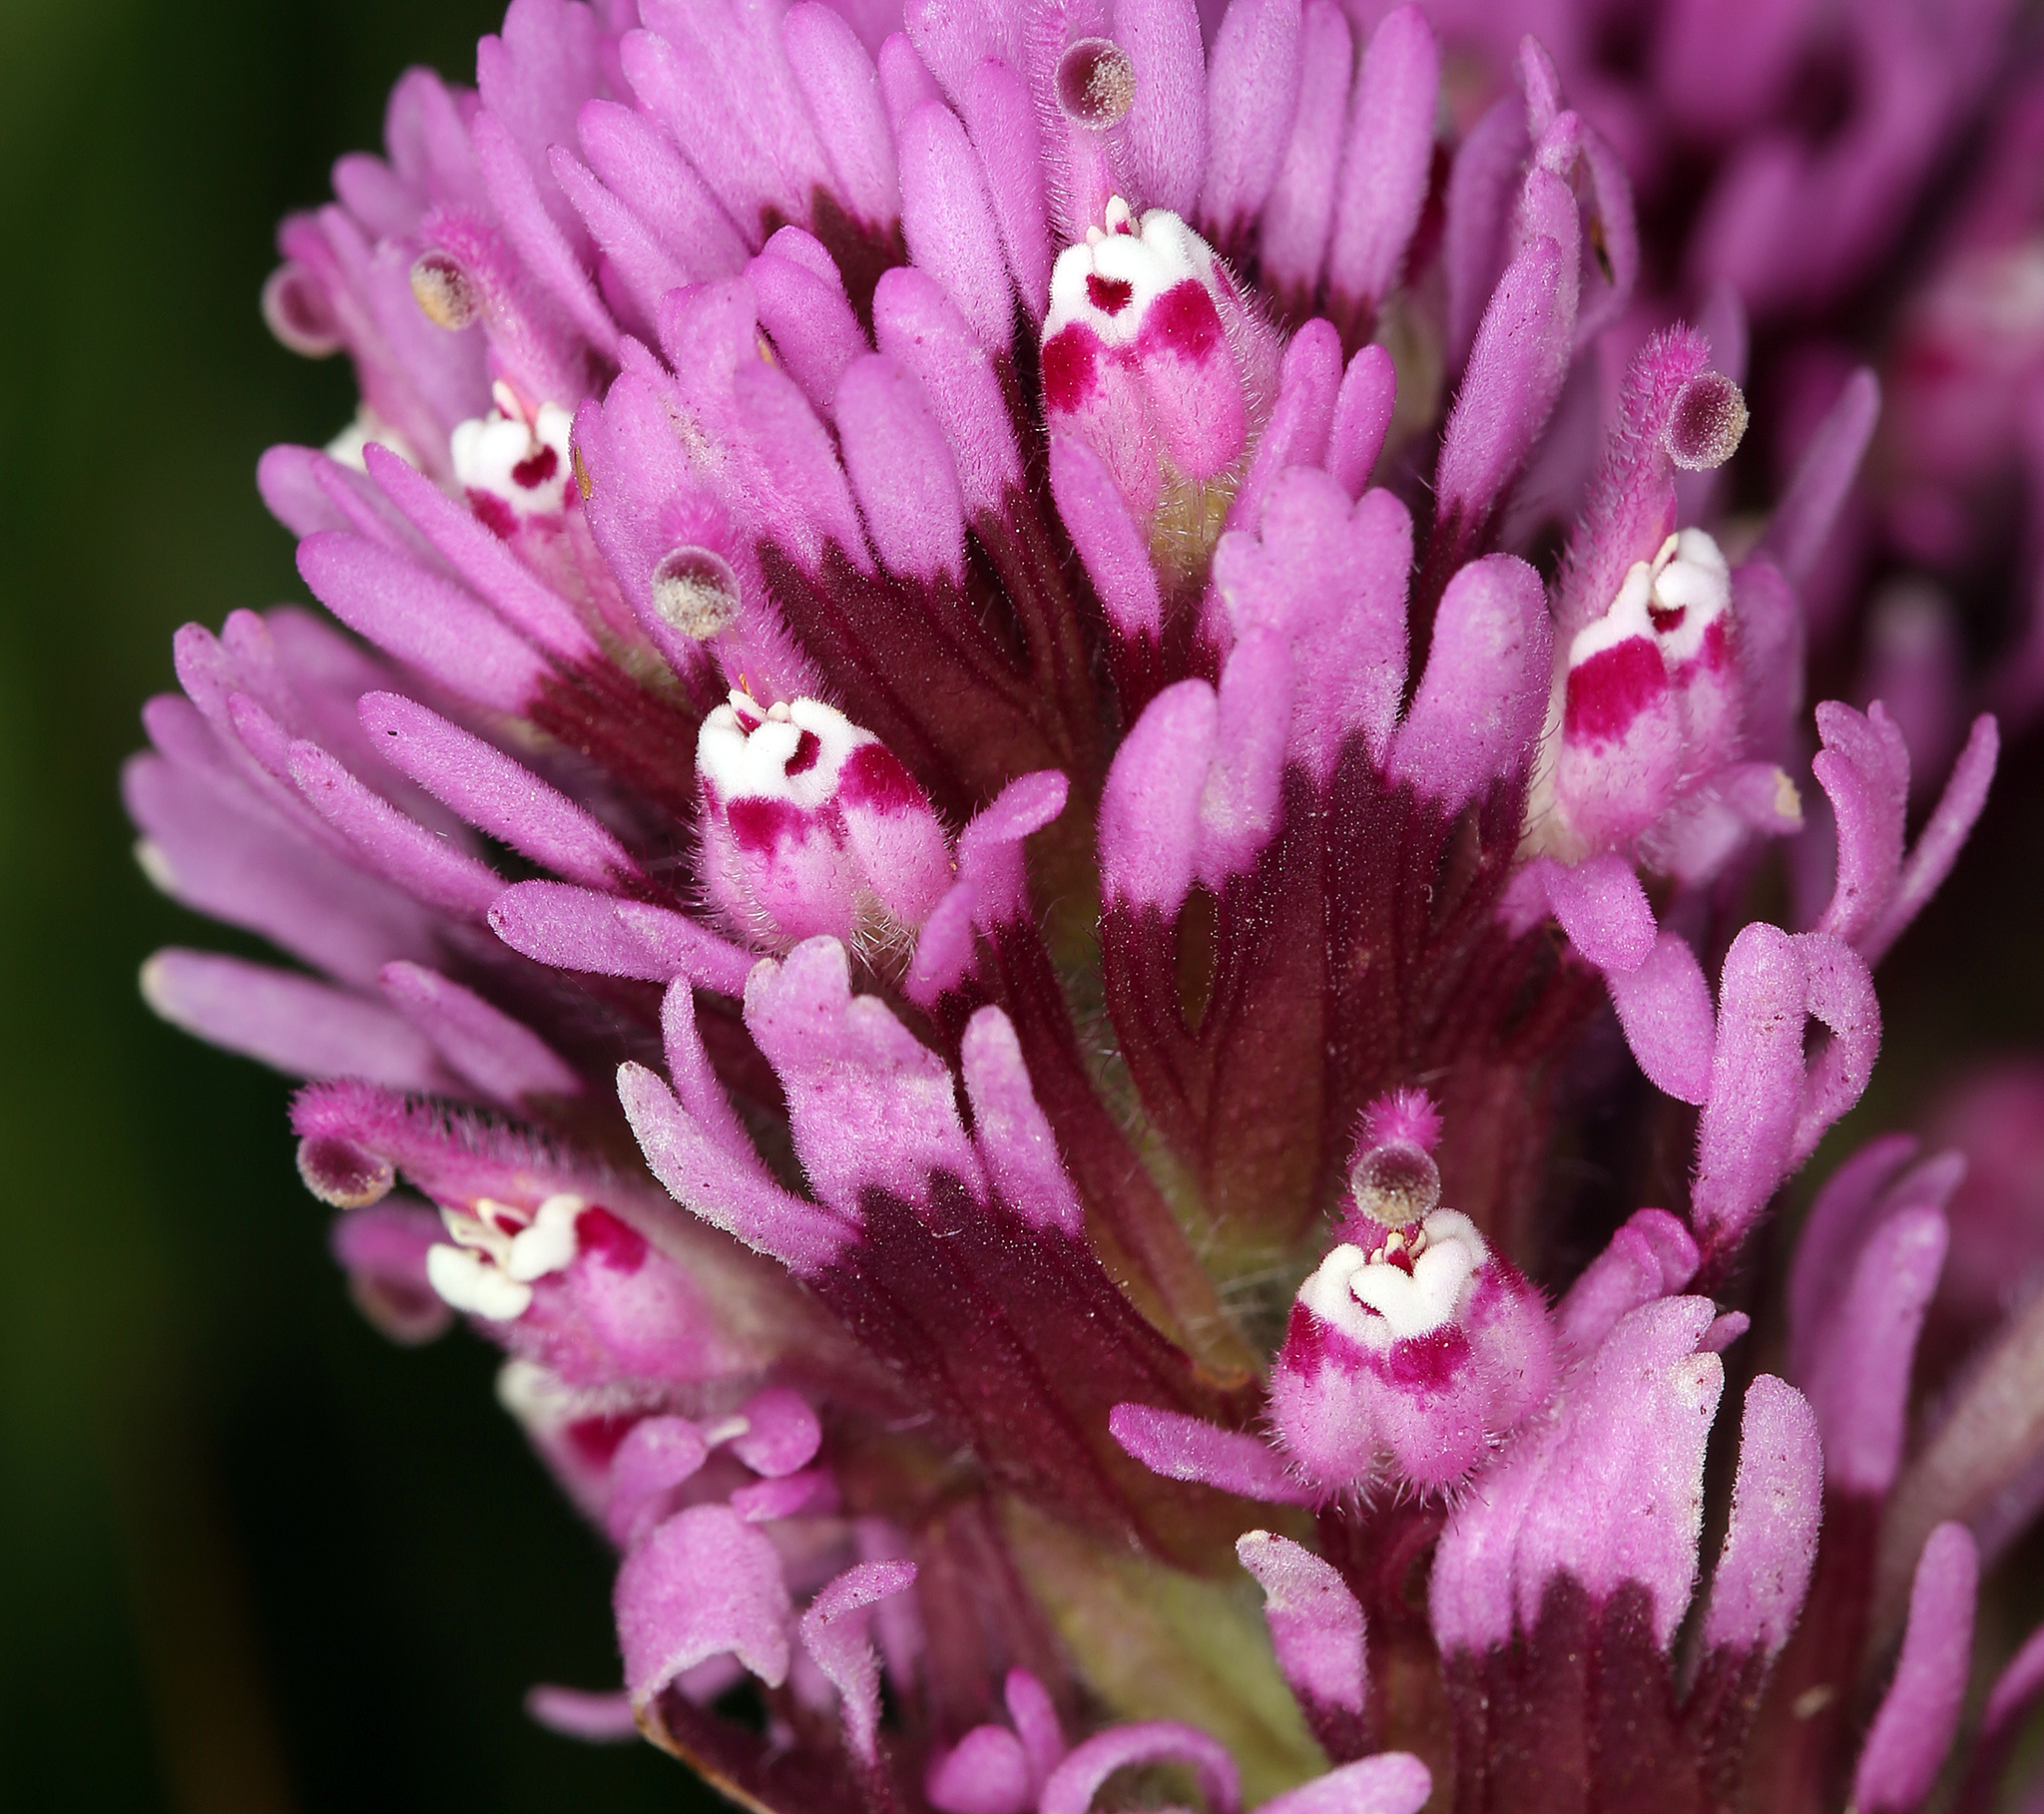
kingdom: Plantae
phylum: Tracheophyta
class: Magnoliopsida
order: Lamiales
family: Orobanchaceae
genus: Castilleja
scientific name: Castilleja exserta
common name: Purple owl-clover
